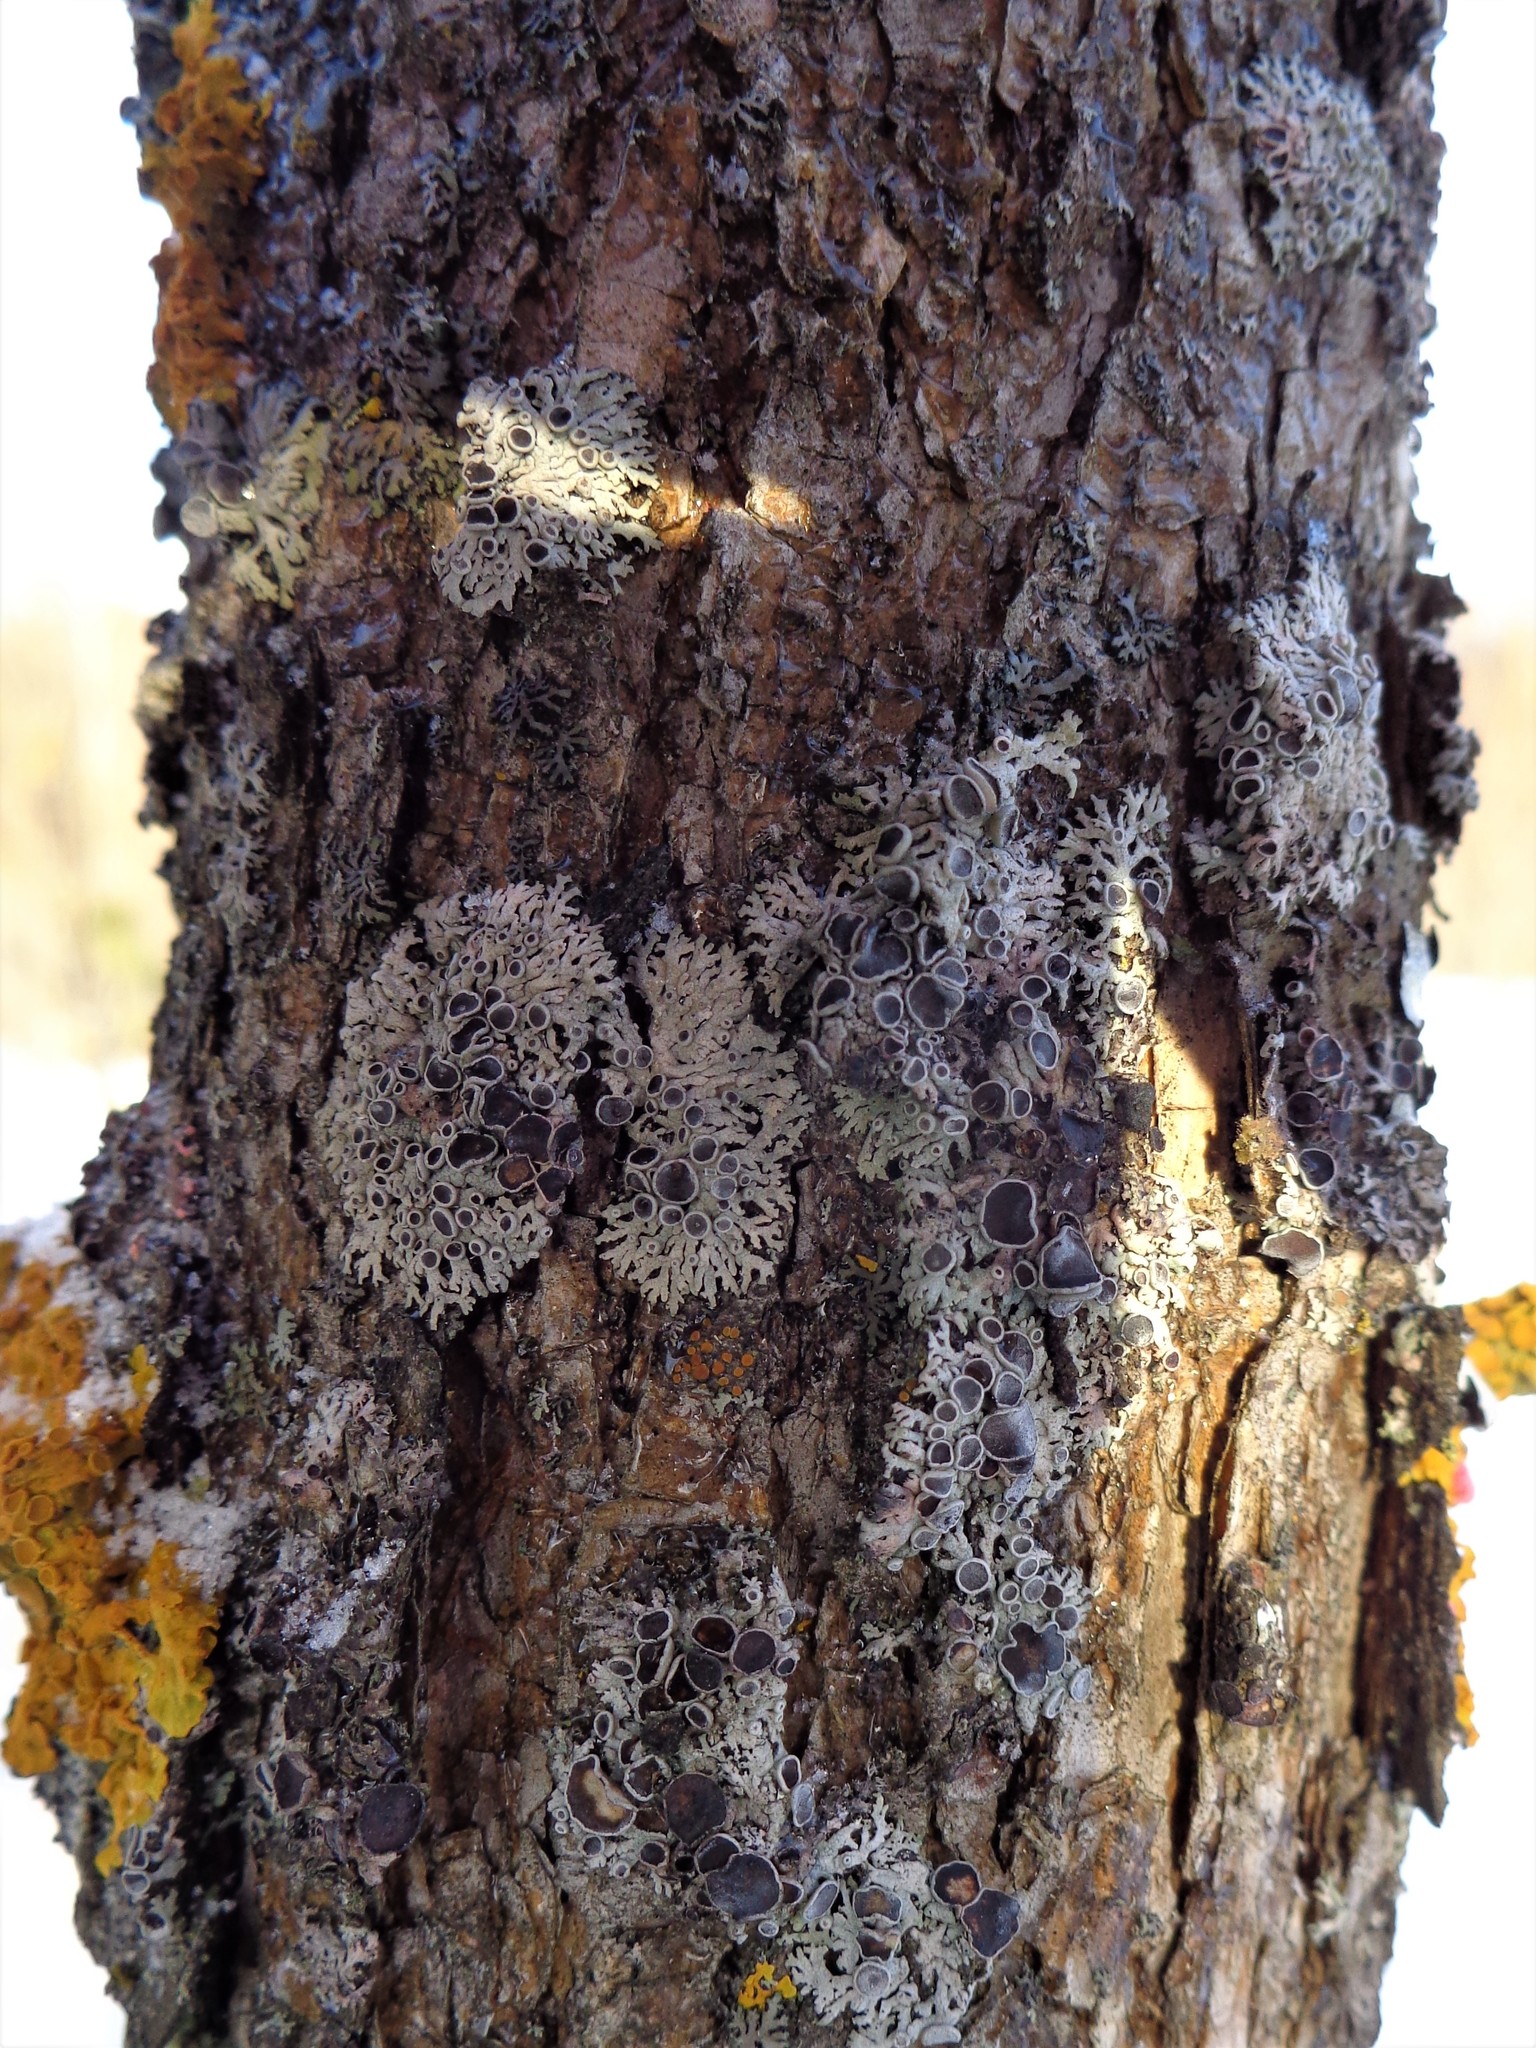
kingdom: Fungi
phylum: Ascomycota
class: Lecanoromycetes
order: Caliciales
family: Physciaceae
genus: Physcia
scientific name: Physcia aipolia
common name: Hoary rosette lichen
